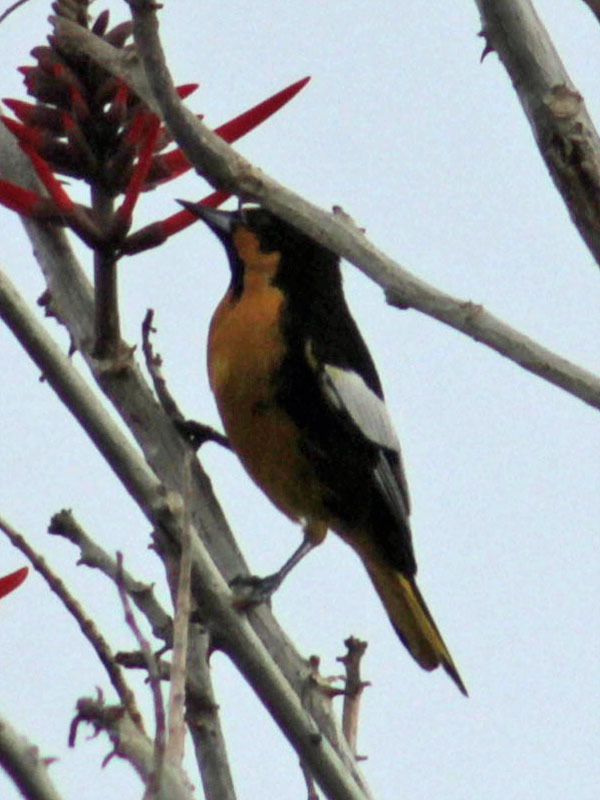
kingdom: Animalia
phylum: Chordata
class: Aves
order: Passeriformes
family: Icteridae
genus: Icterus
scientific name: Icterus abeillei
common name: Black-backed oriole
